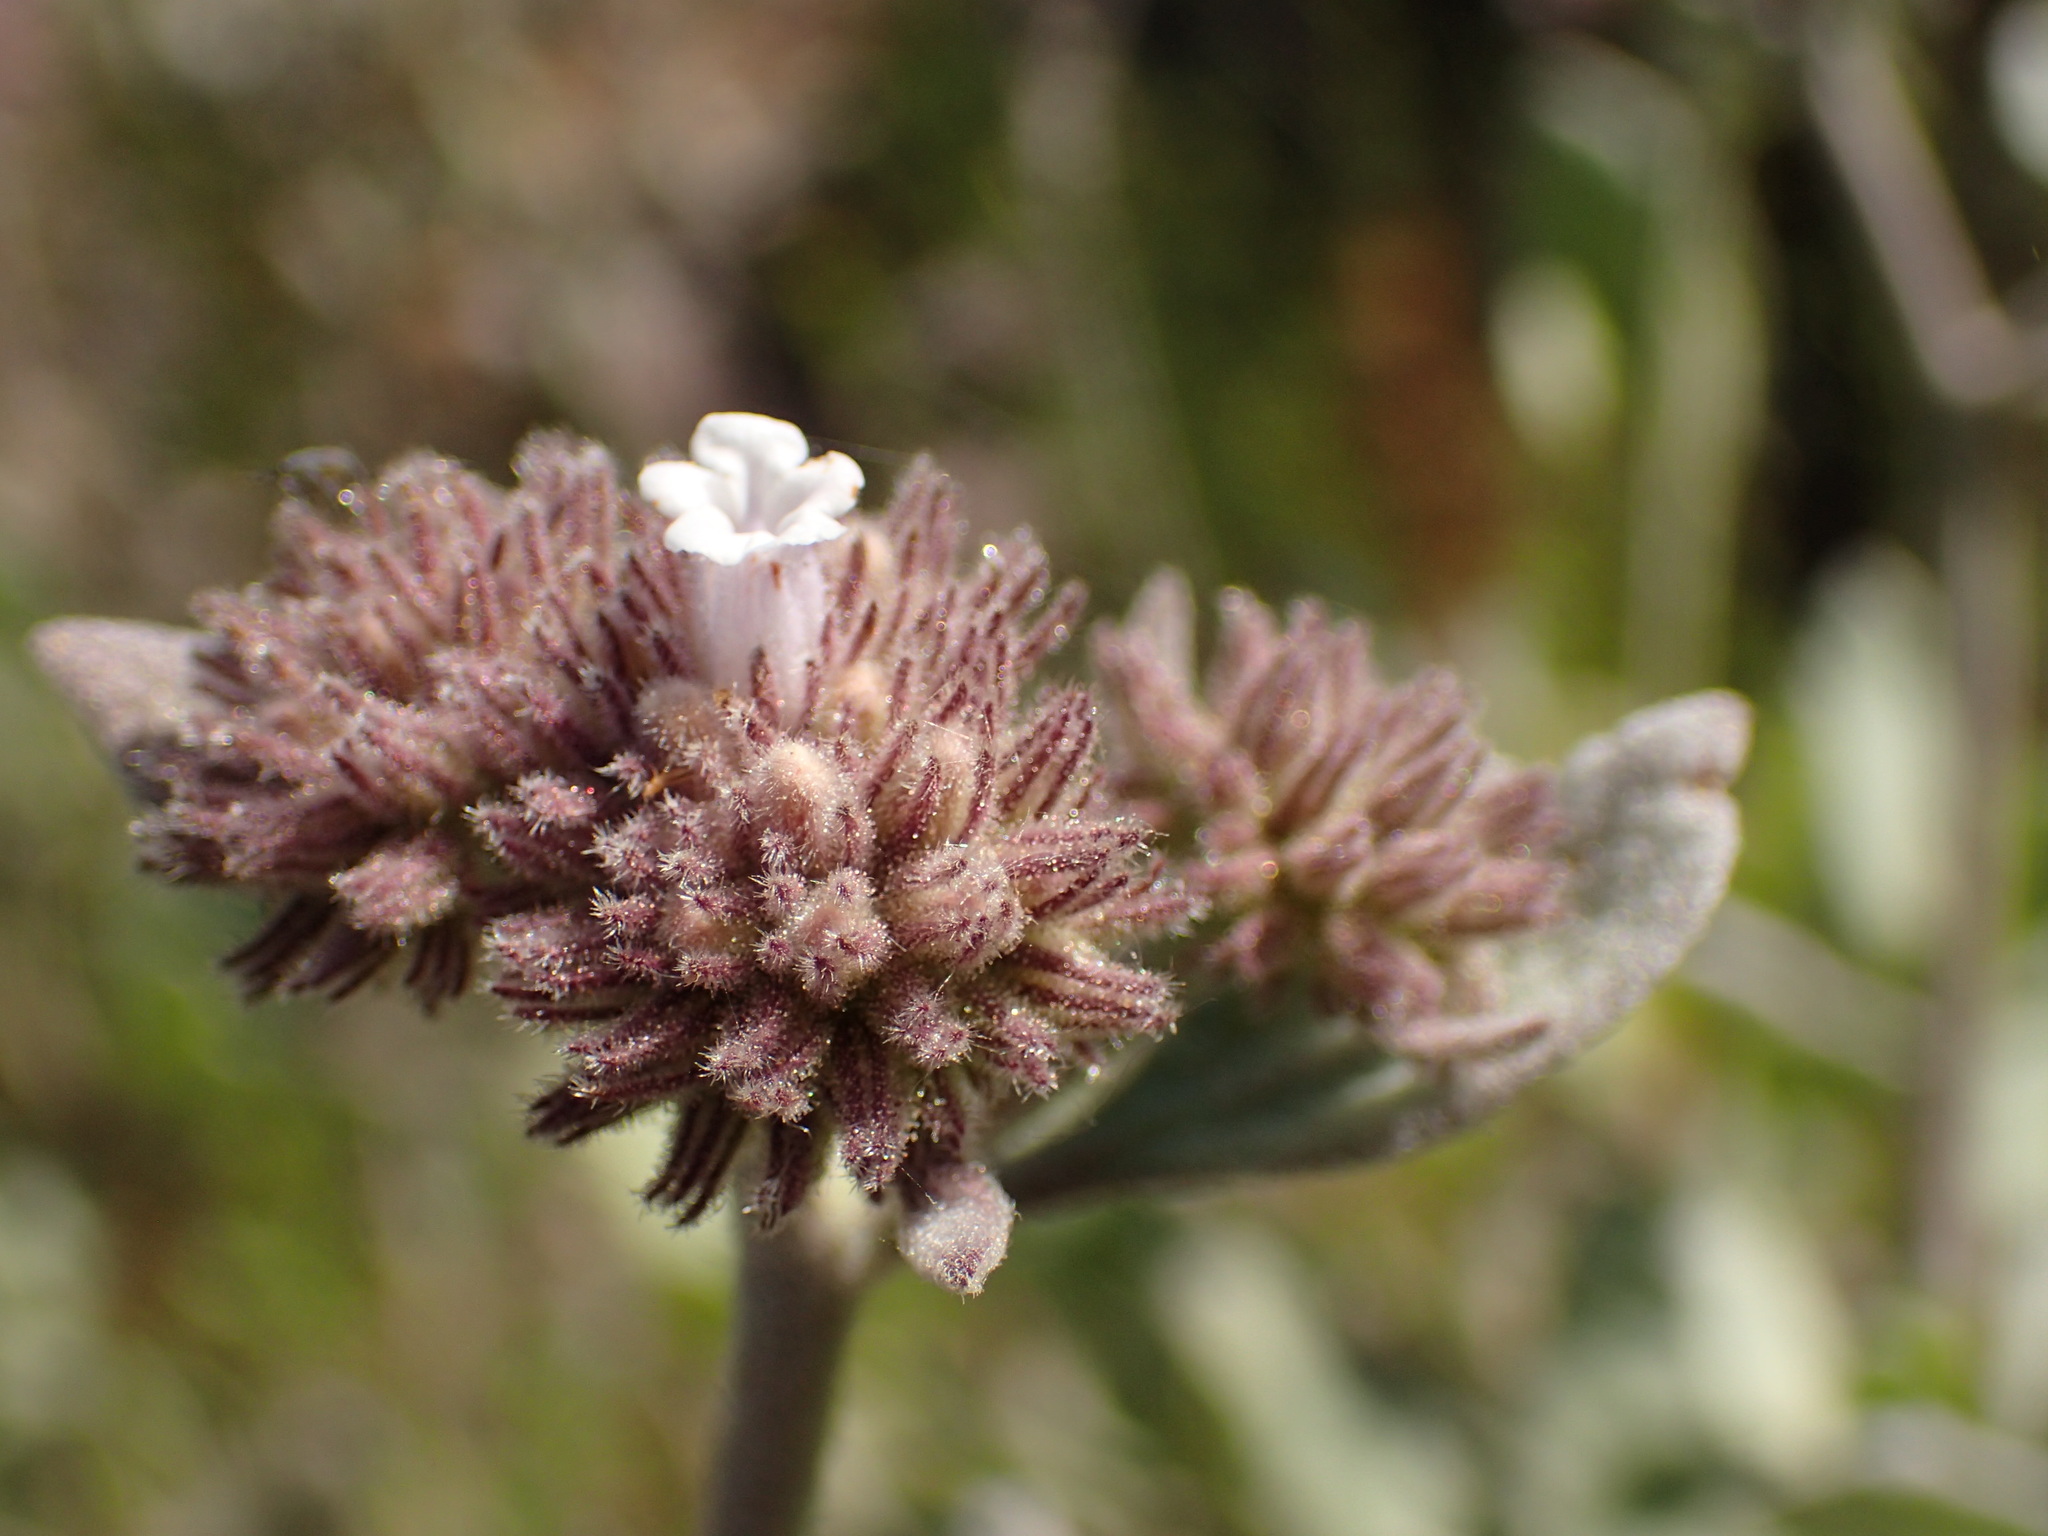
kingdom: Plantae
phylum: Tracheophyta
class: Magnoliopsida
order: Boraginales
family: Namaceae
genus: Eriodictyon
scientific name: Eriodictyon traskiae
